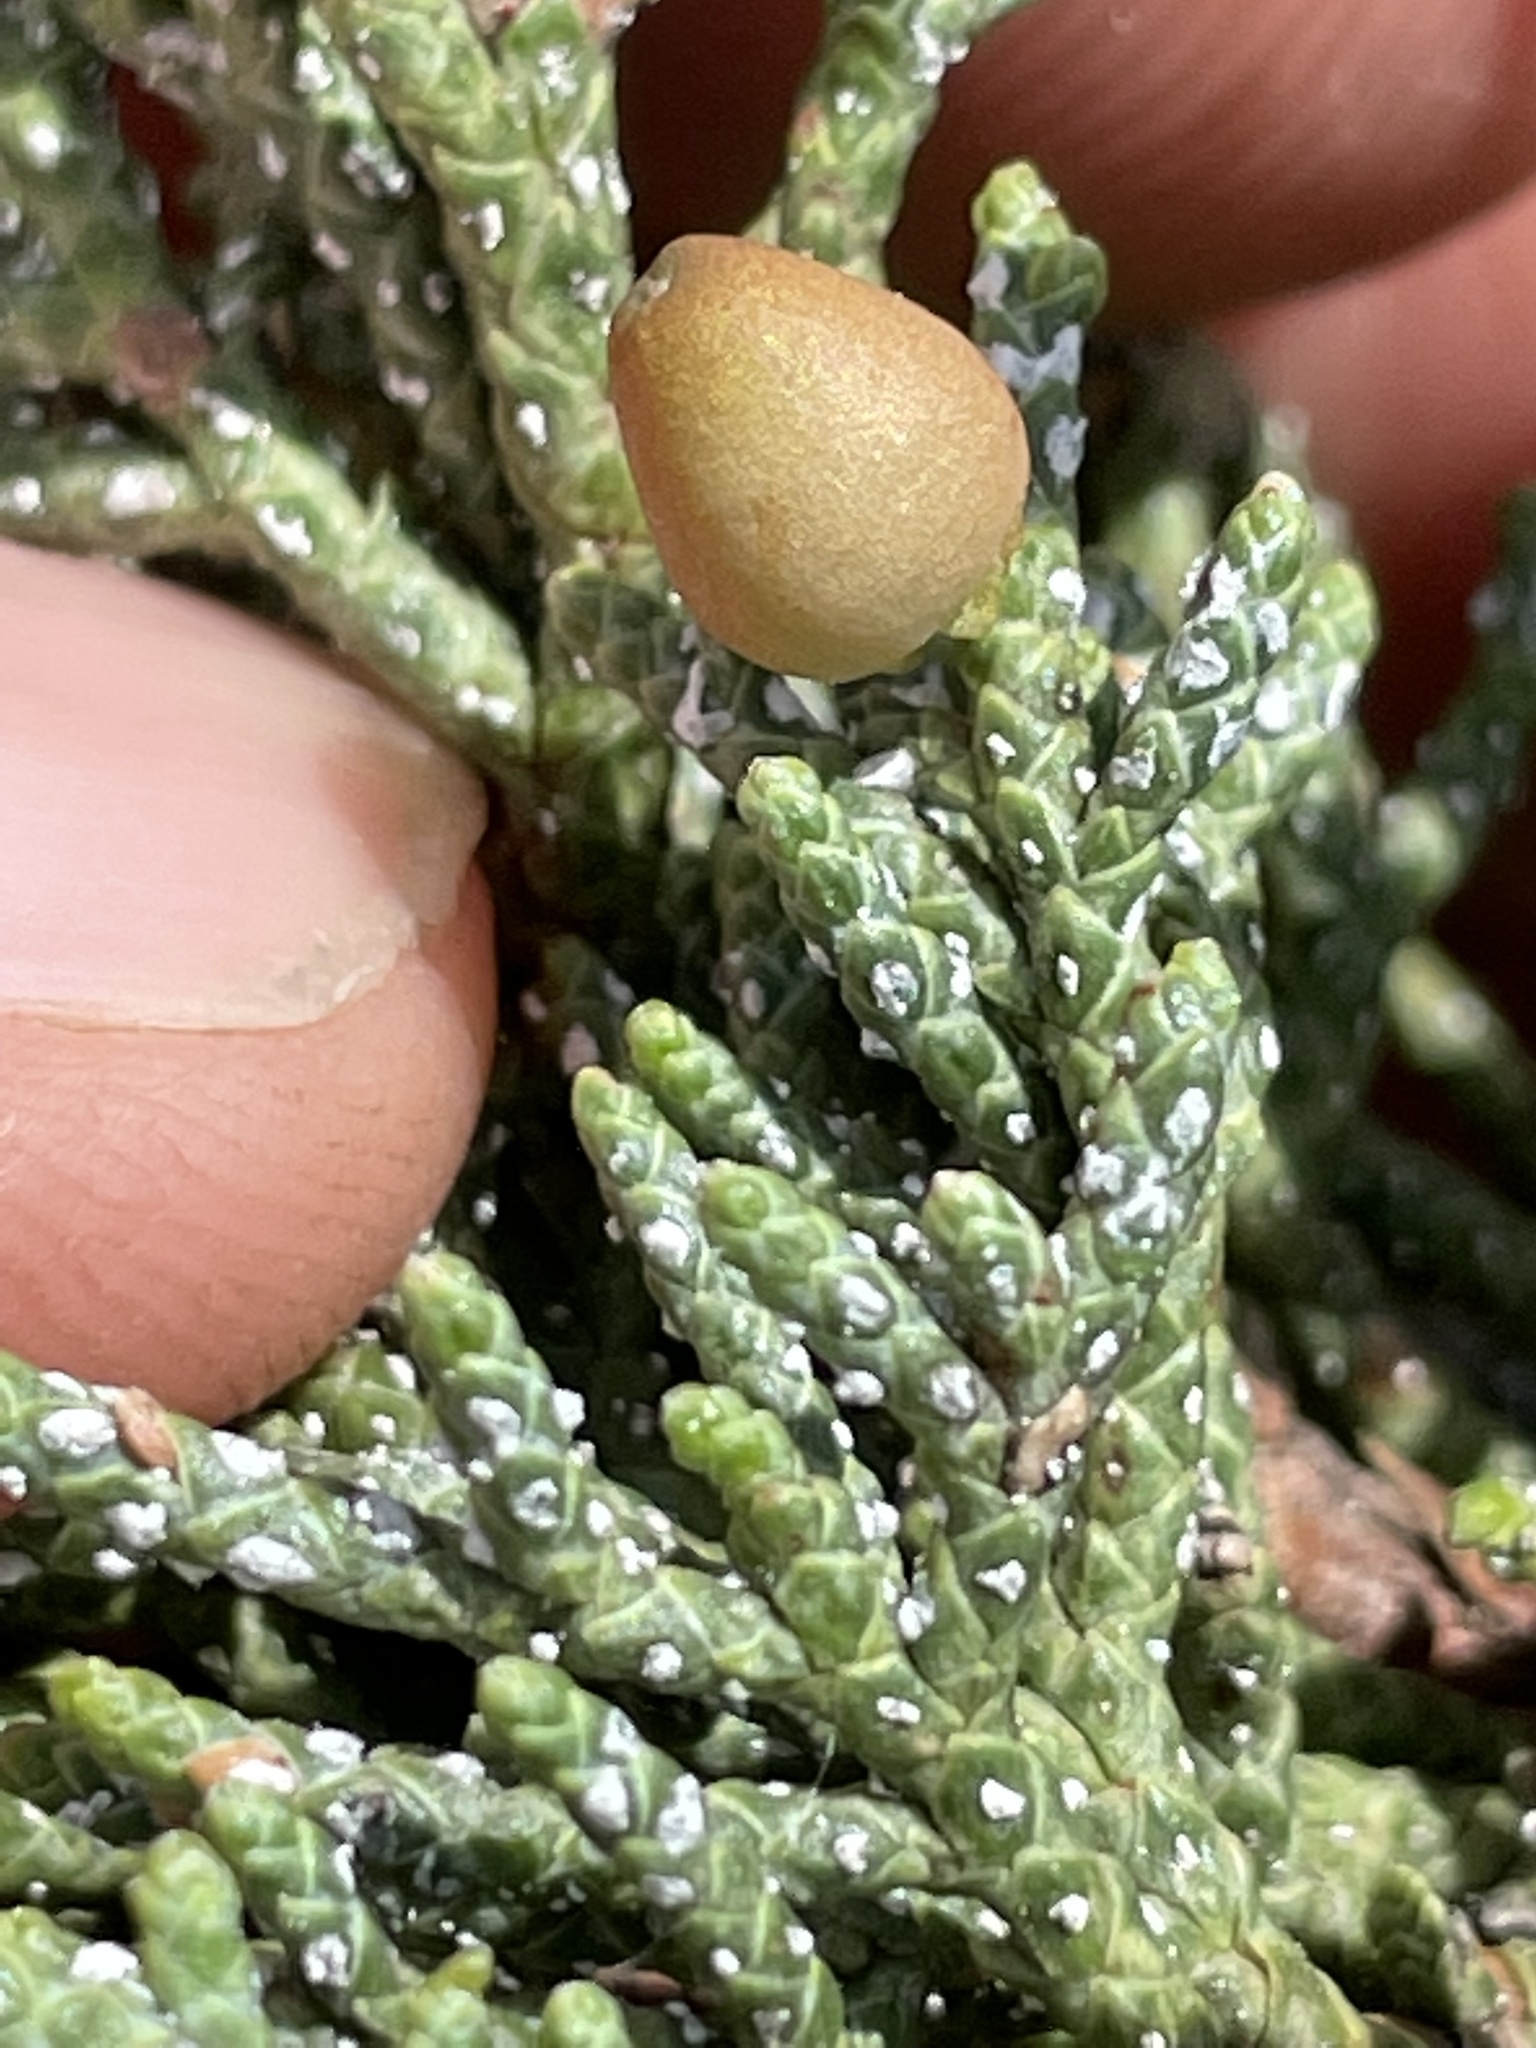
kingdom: Plantae
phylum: Tracheophyta
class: Pinopsida
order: Pinales
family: Cupressaceae
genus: Juniperus
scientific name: Juniperus occidentalis
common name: Western juniper
